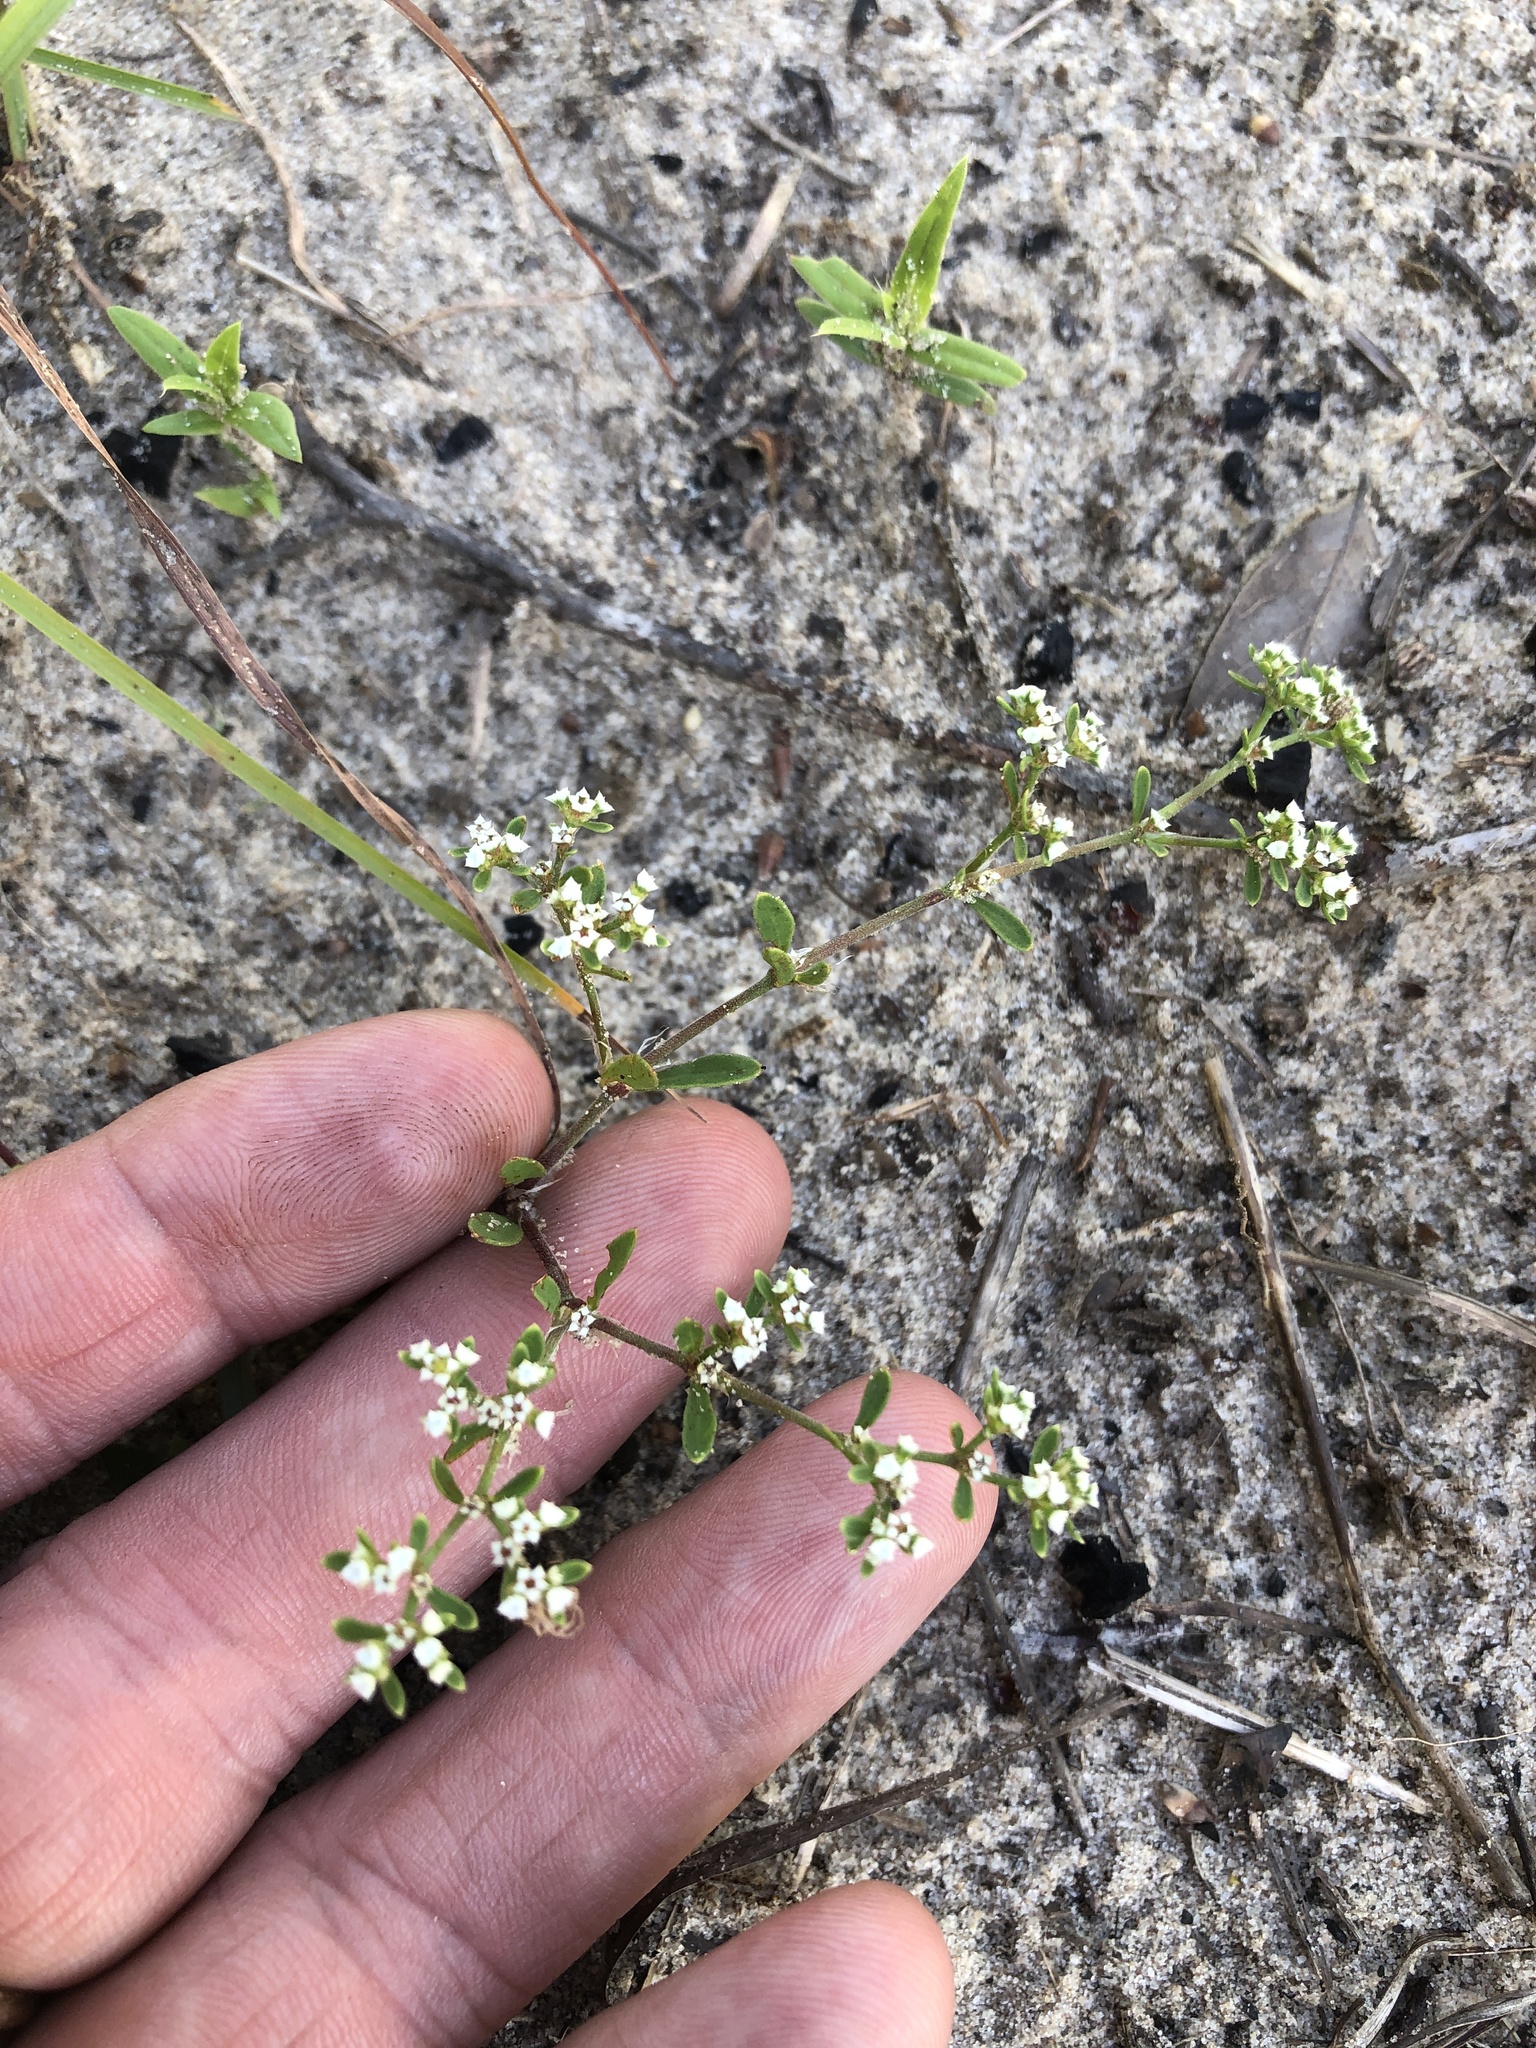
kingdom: Plantae
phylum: Tracheophyta
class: Magnoliopsida
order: Caryophyllales
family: Caryophyllaceae
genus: Paronychia
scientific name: Paronychia drummondii
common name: Drummond's nailwort
